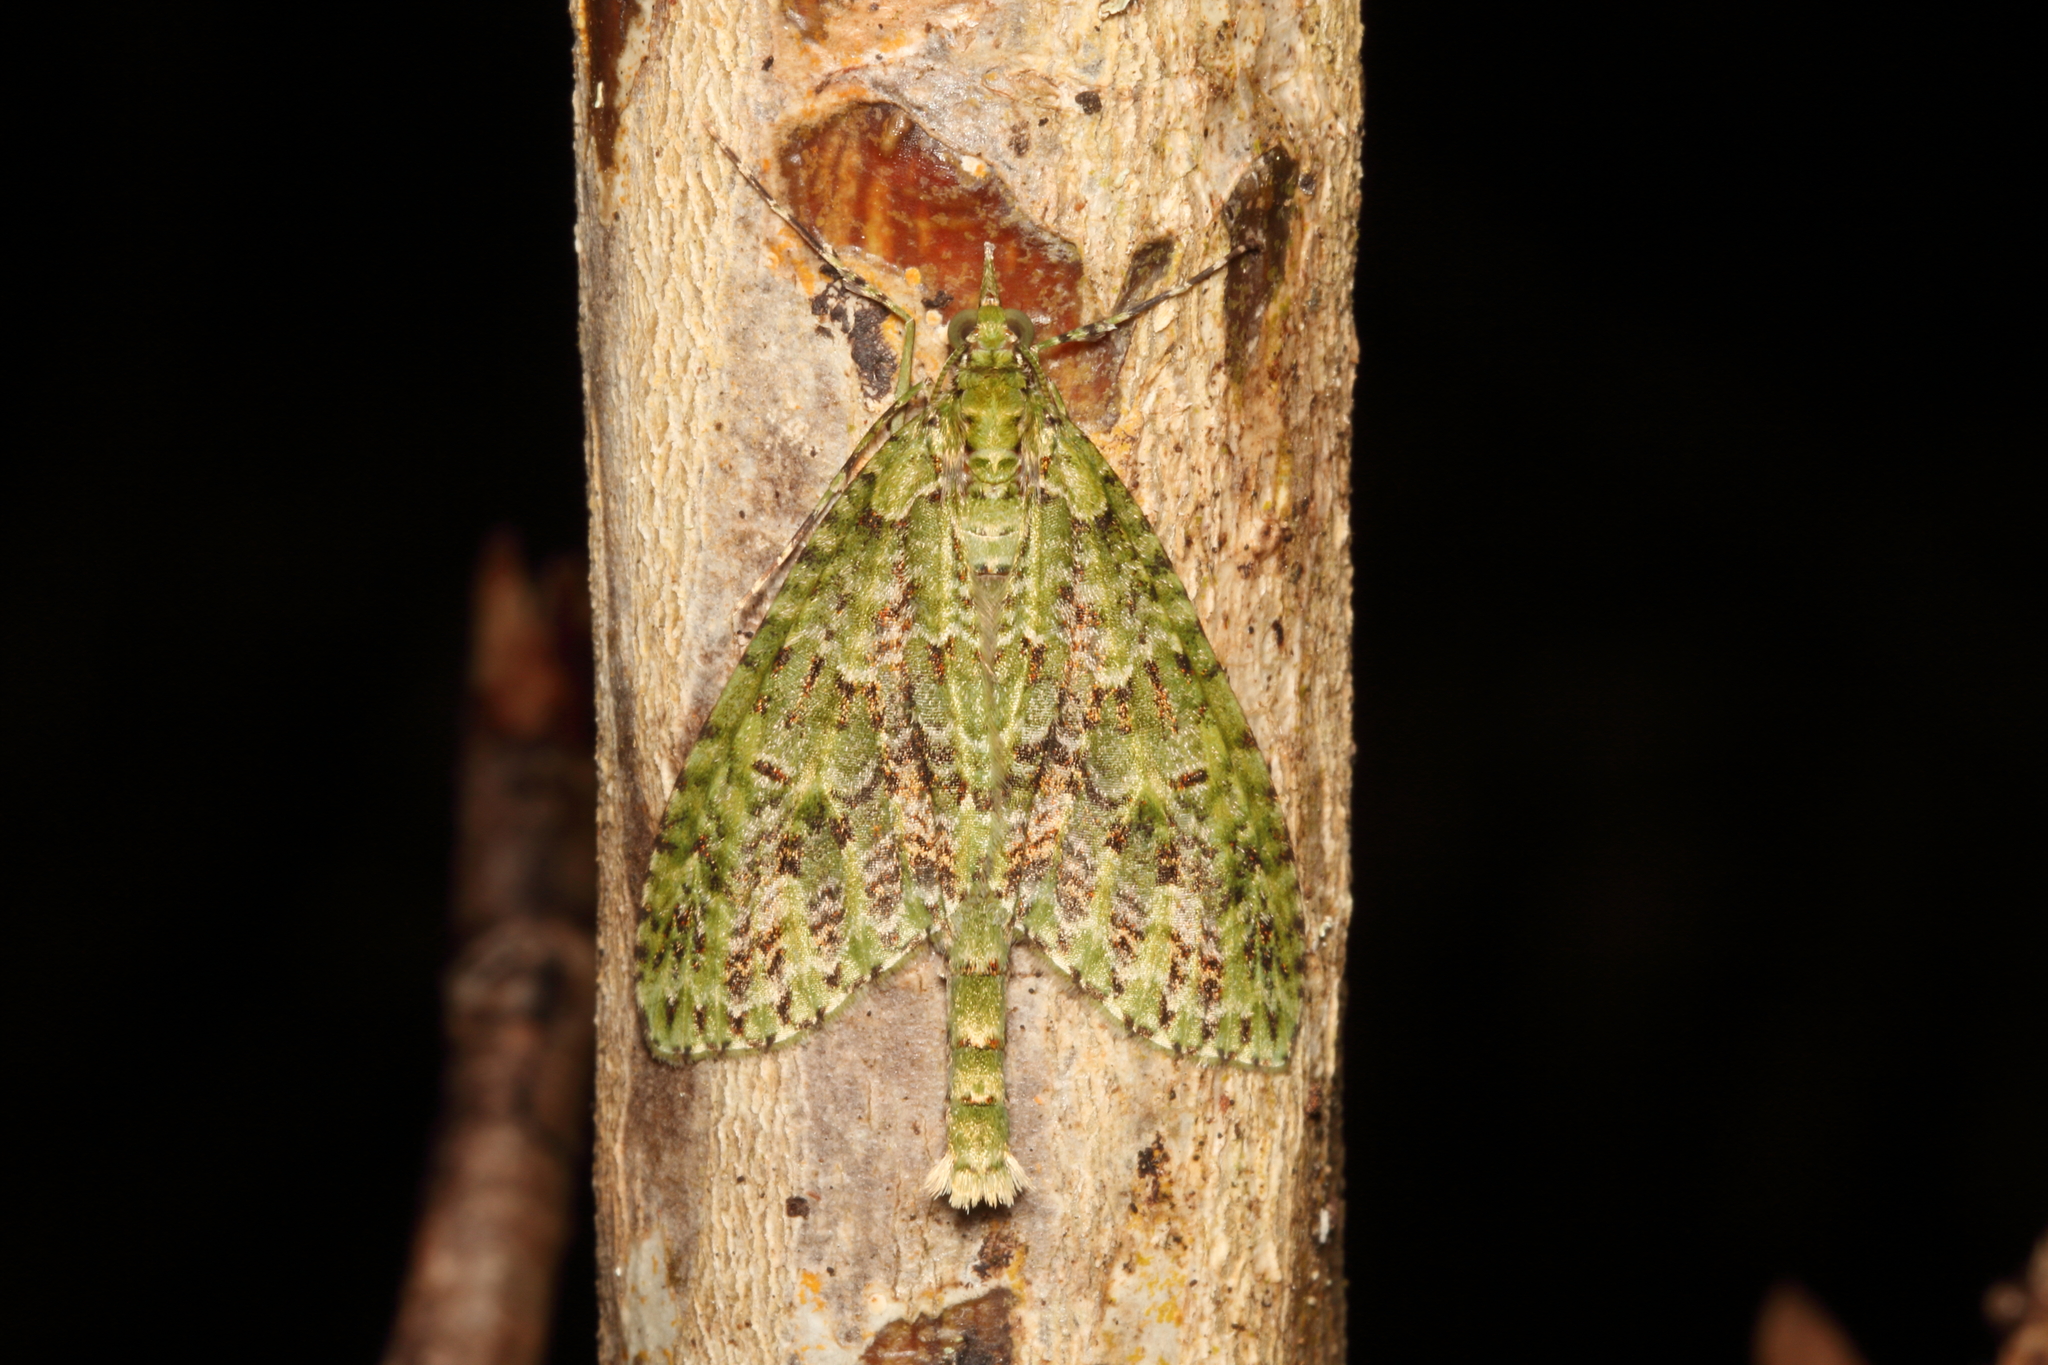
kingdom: Animalia
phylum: Arthropoda
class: Insecta
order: Lepidoptera
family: Geometridae
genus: Tatosoma
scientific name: Tatosoma tipulata
